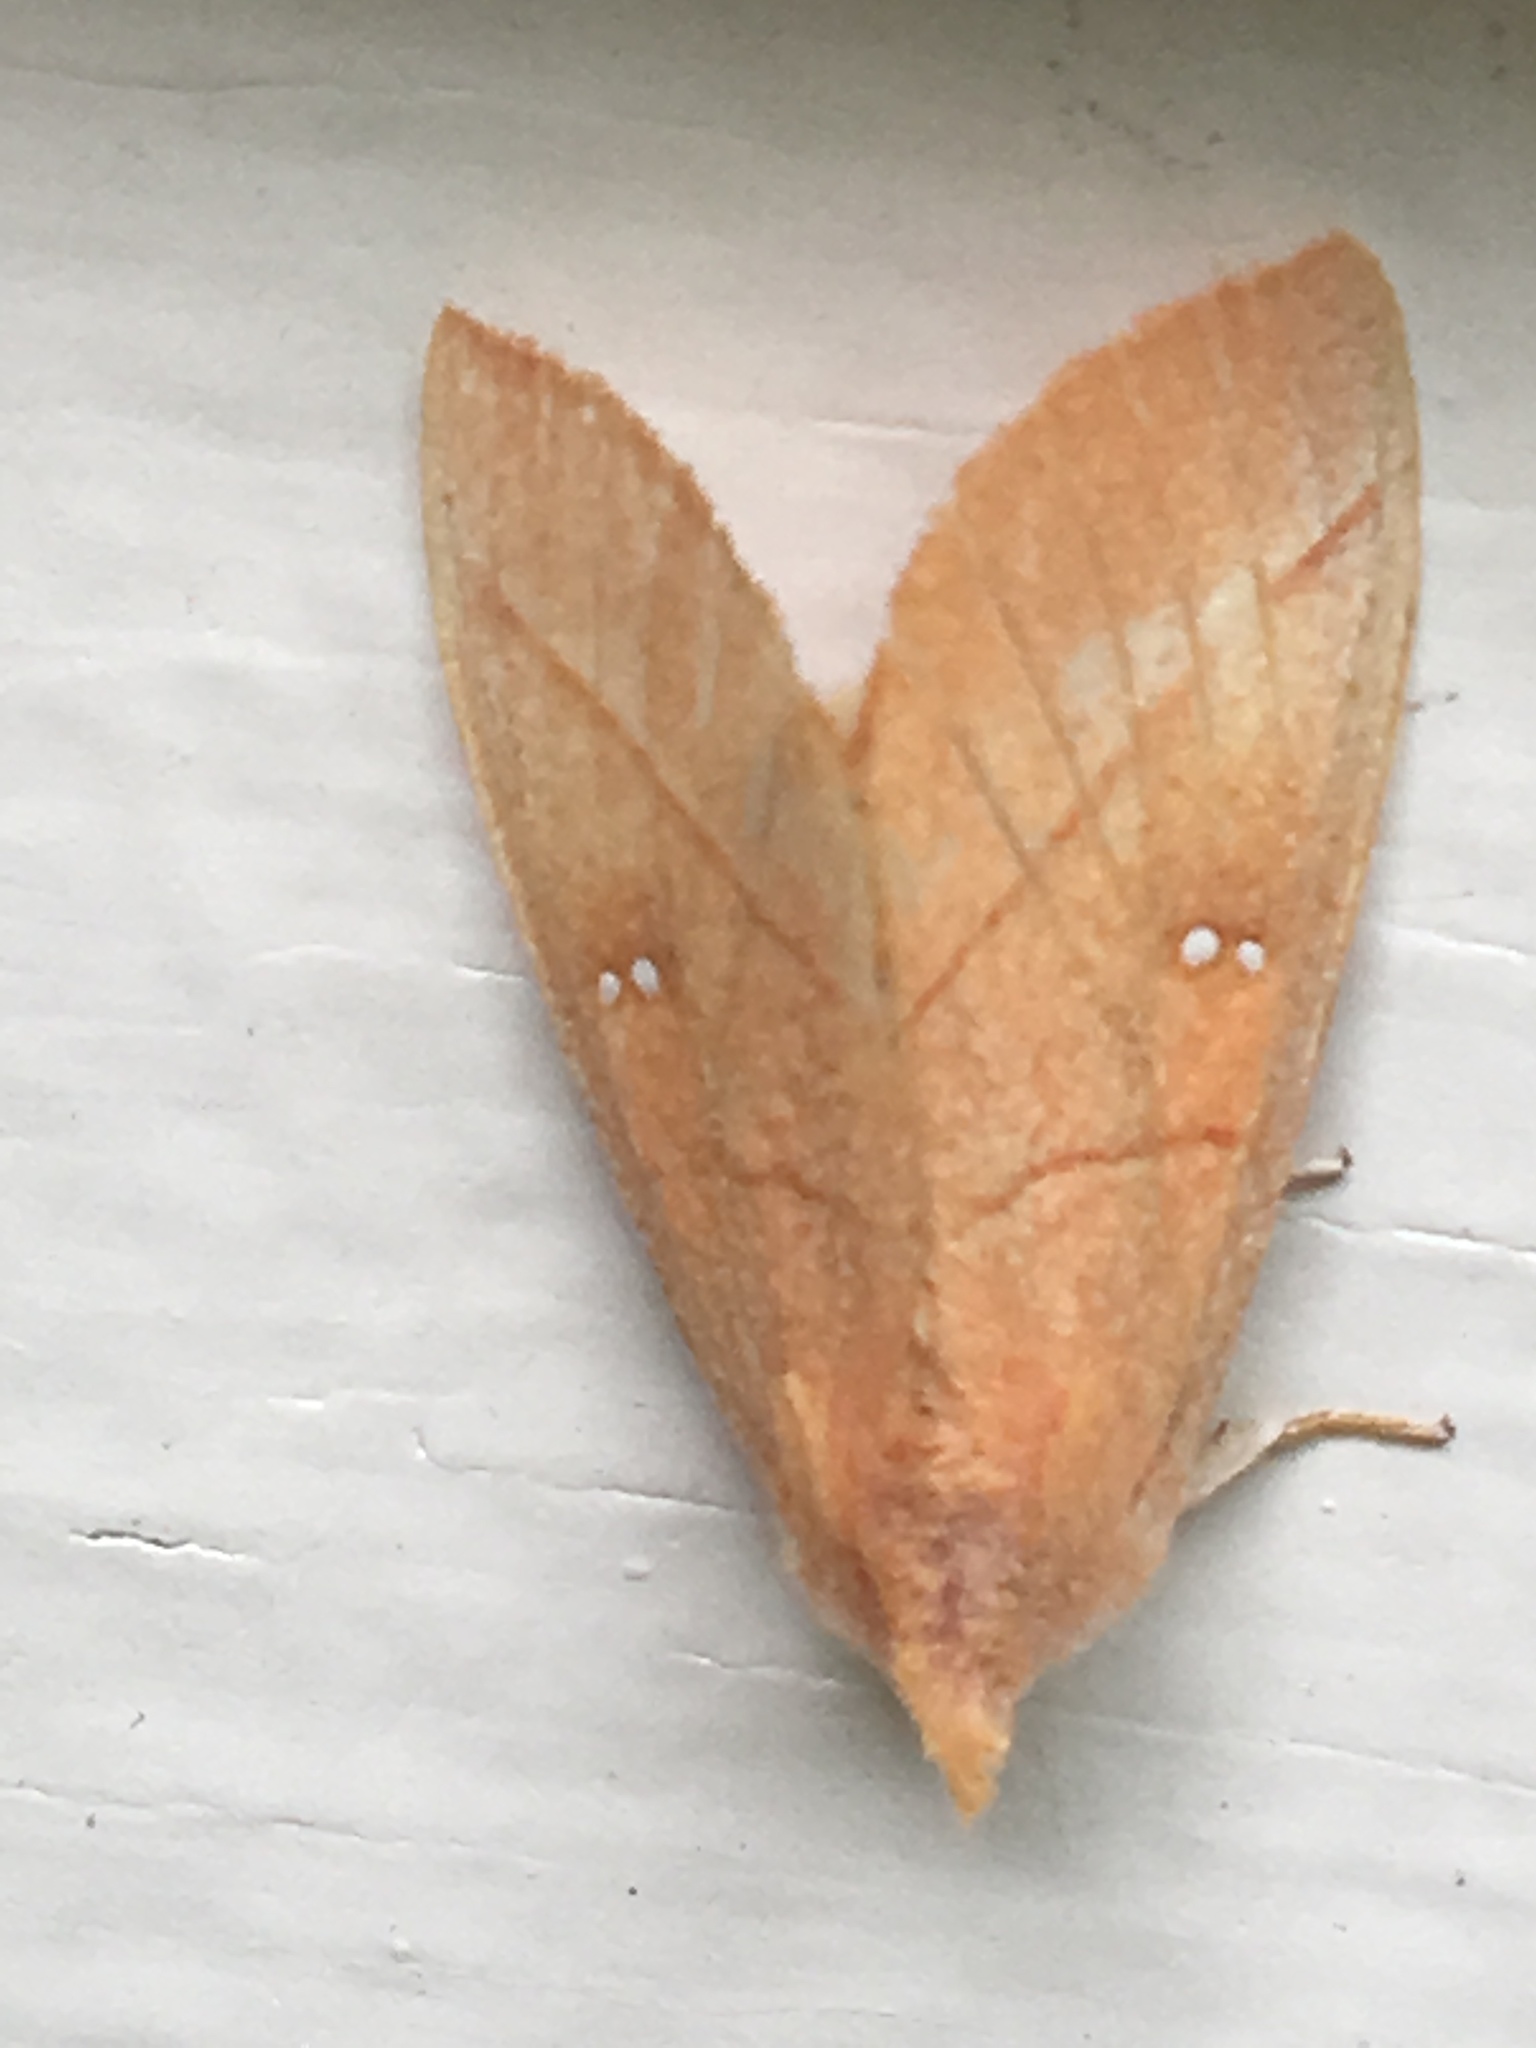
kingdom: Animalia
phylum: Arthropoda
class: Insecta
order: Lepidoptera
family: Notodontidae
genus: Nadata
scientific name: Nadata gibbosa
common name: White-dotted prominent
